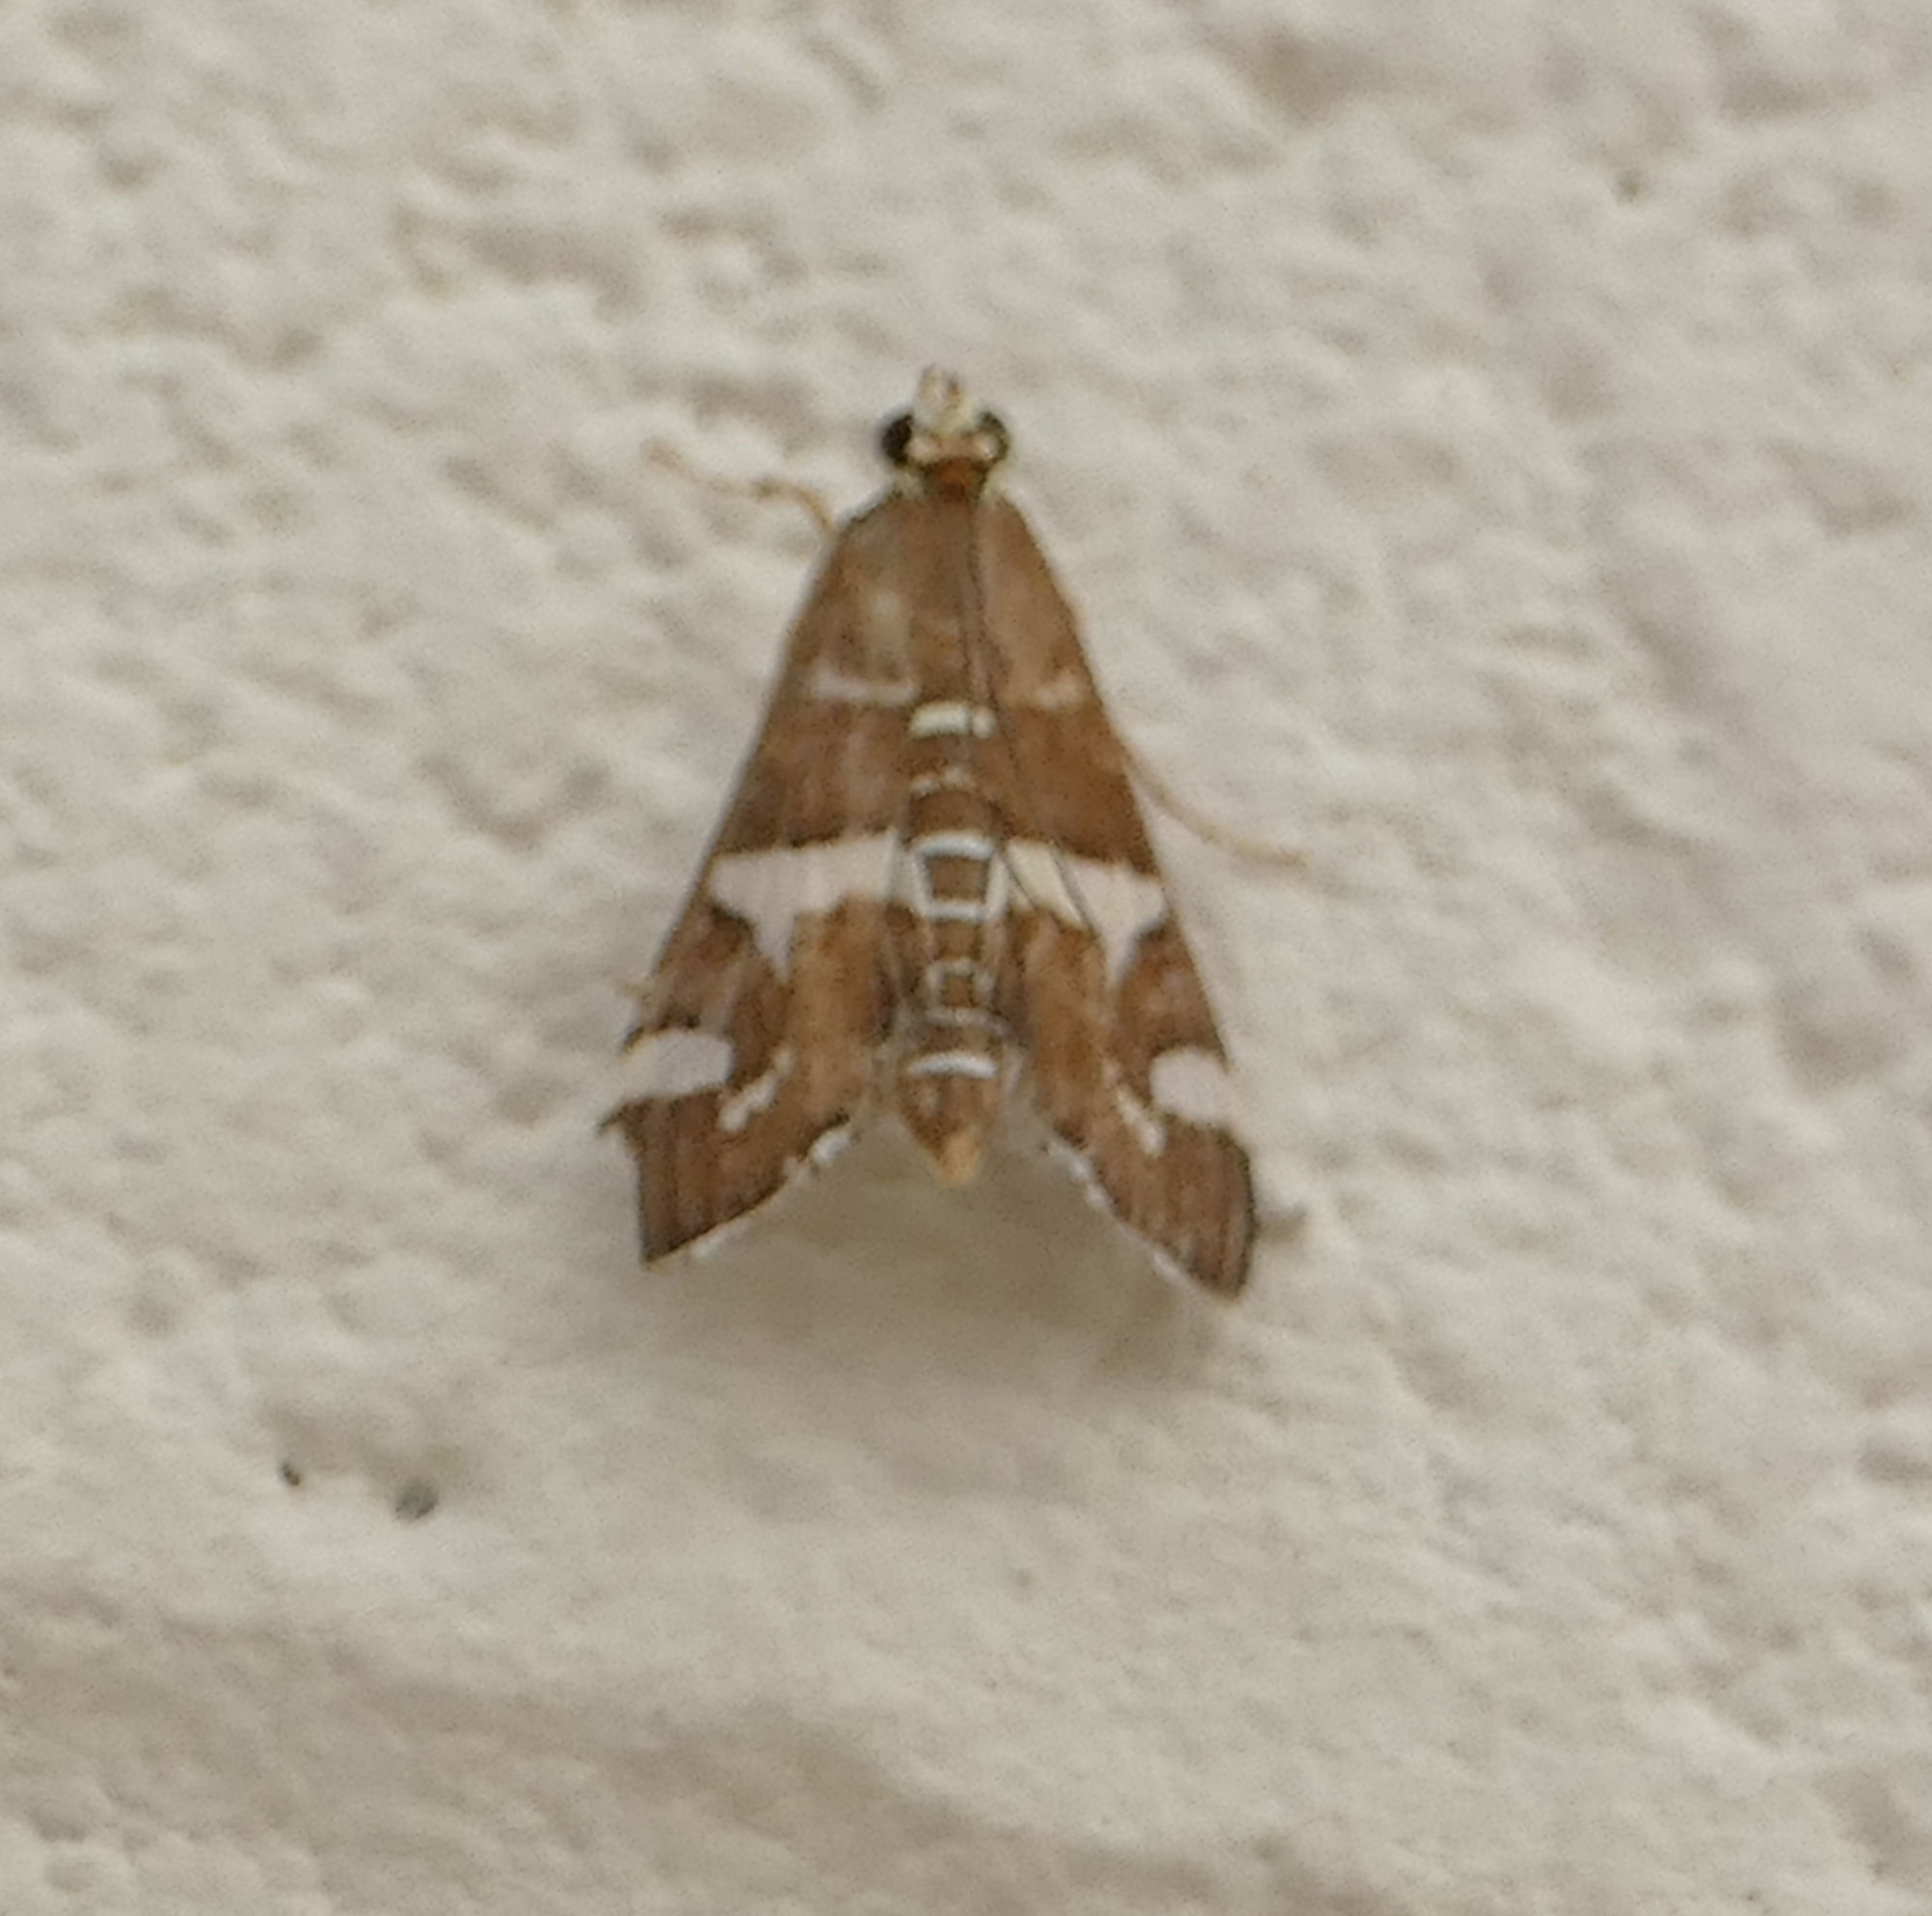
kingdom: Animalia
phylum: Arthropoda
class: Insecta
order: Lepidoptera
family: Crambidae
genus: Spoladea
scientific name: Spoladea recurvalis
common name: Beet webworm moth
